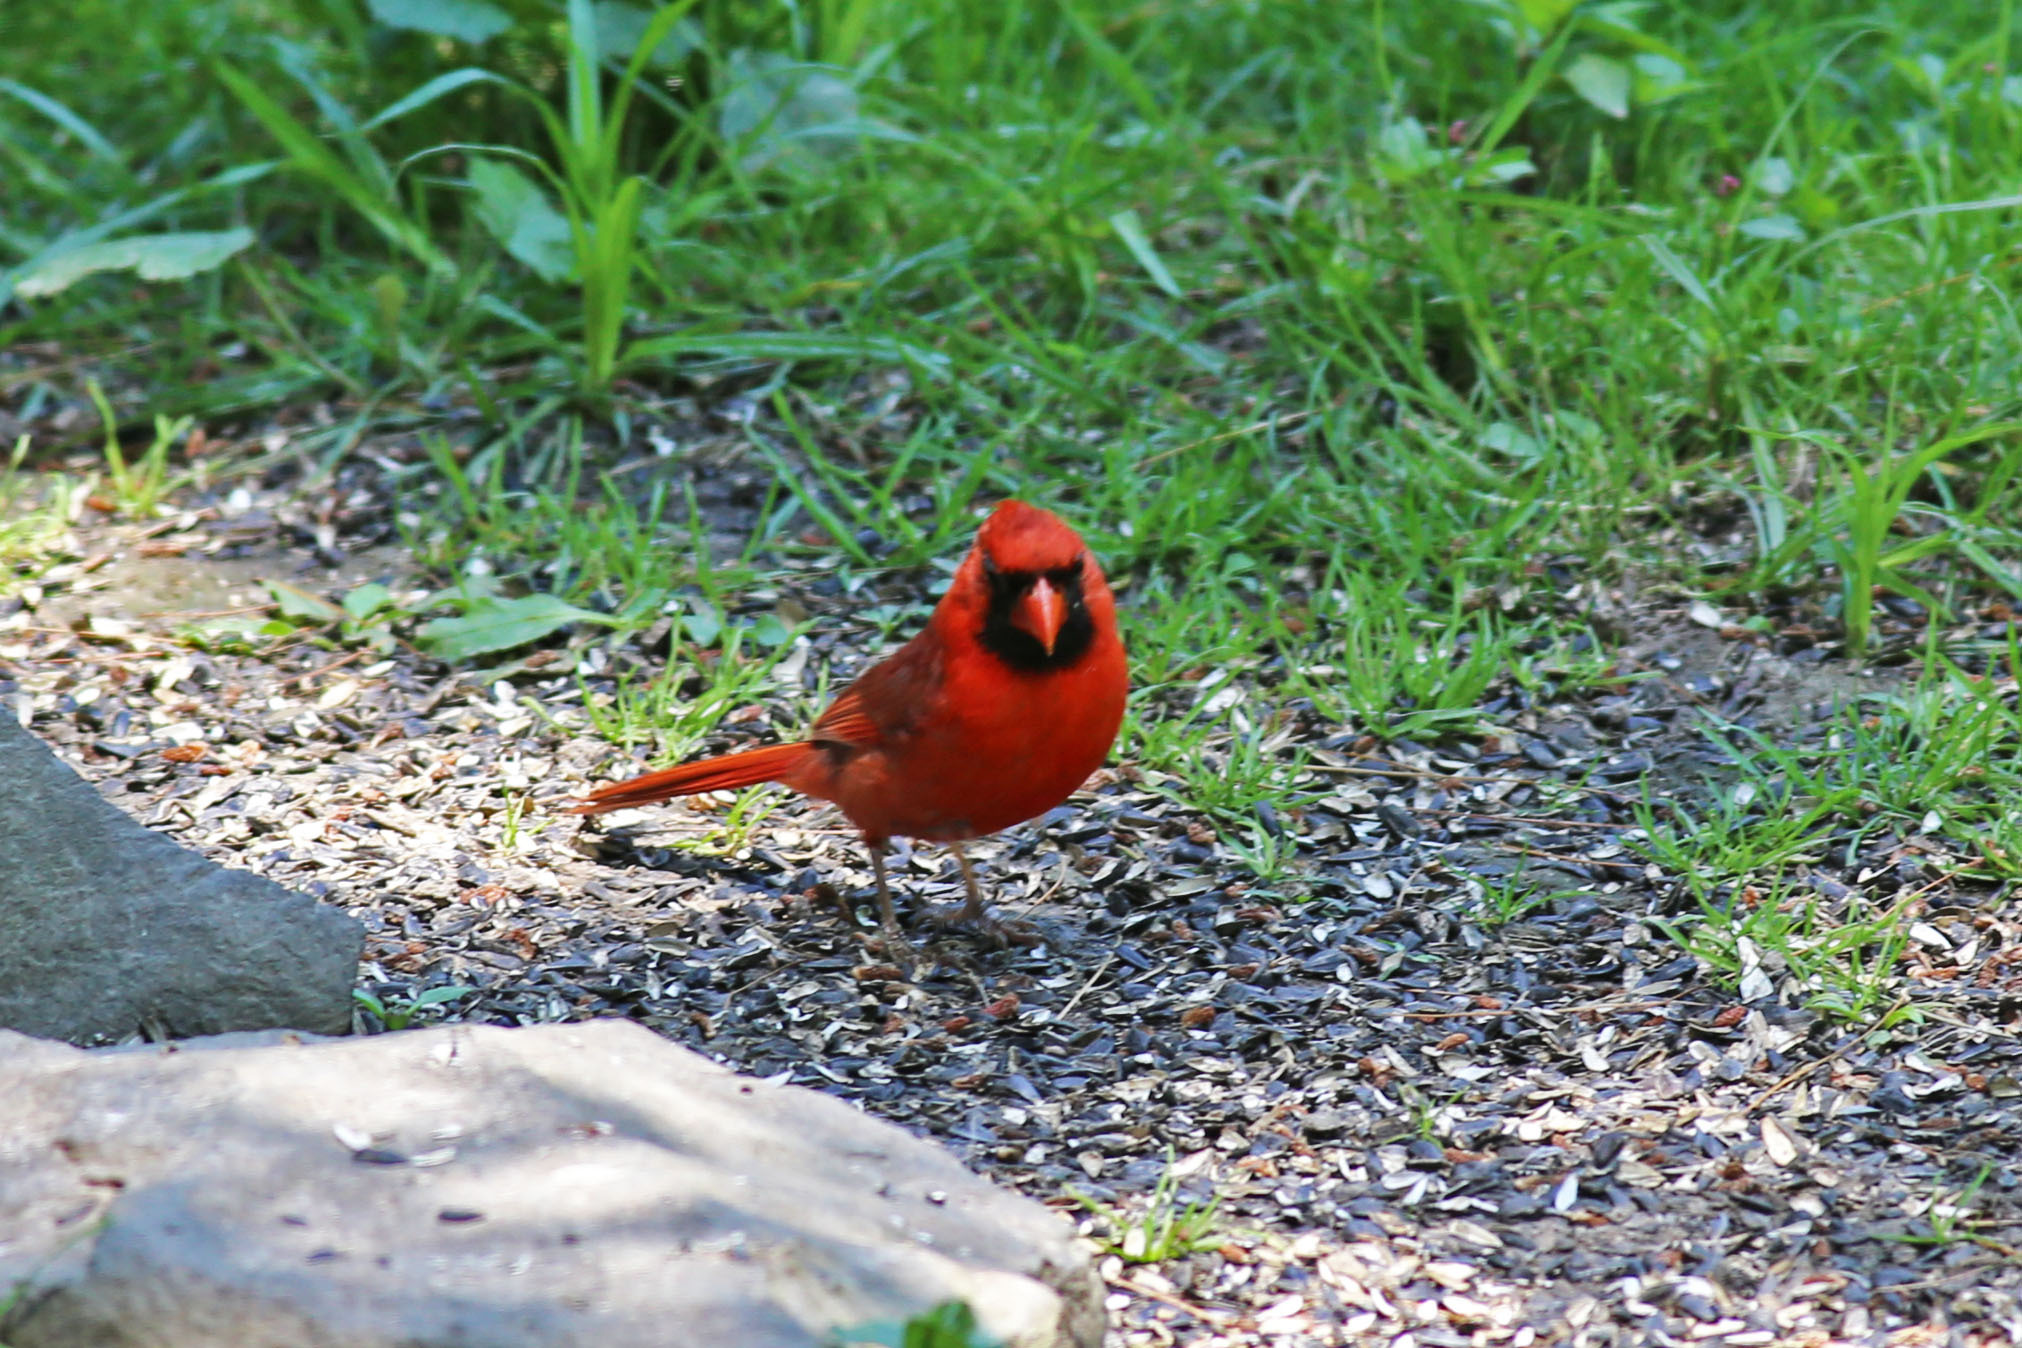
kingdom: Animalia
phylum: Chordata
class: Aves
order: Passeriformes
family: Cardinalidae
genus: Cardinalis
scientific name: Cardinalis cardinalis
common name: Northern cardinal
